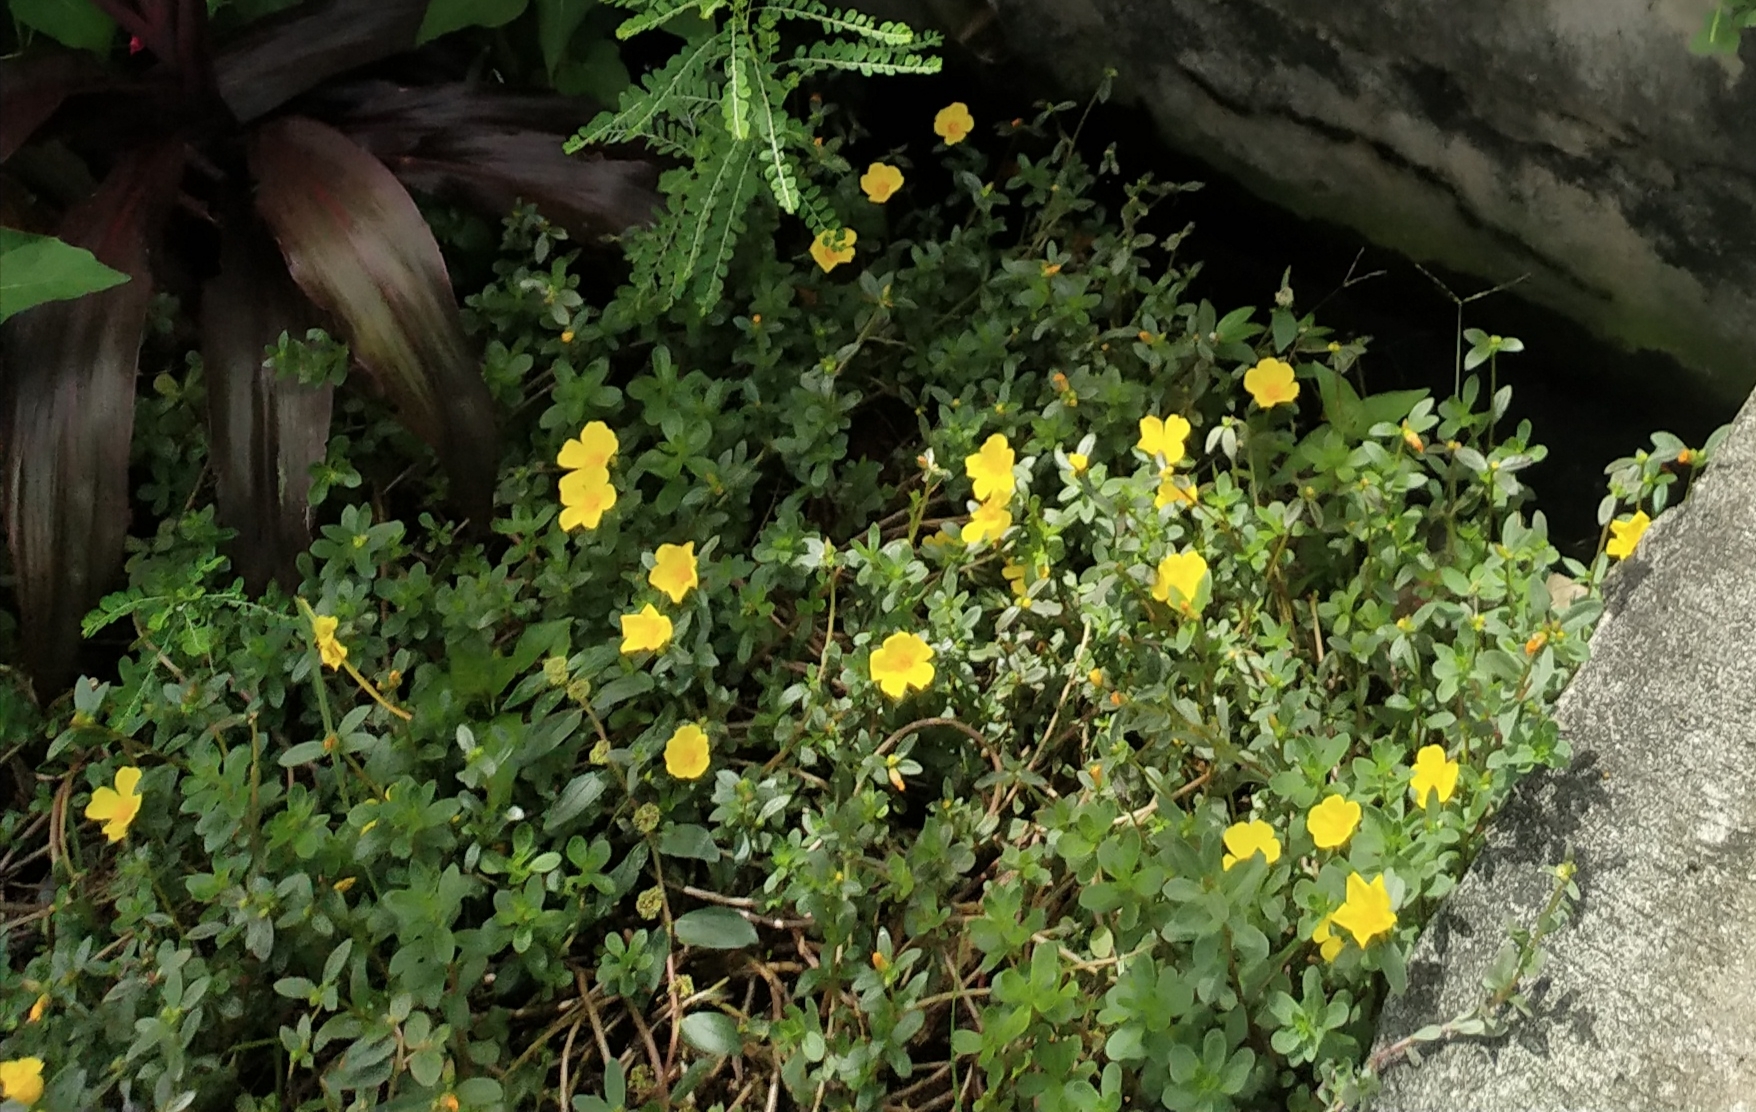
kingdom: Plantae
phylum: Tracheophyta
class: Magnoliopsida
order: Caryophyllales
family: Portulacaceae
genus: Portulaca
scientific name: Portulaca umbraticola
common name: Wingpod purslane
